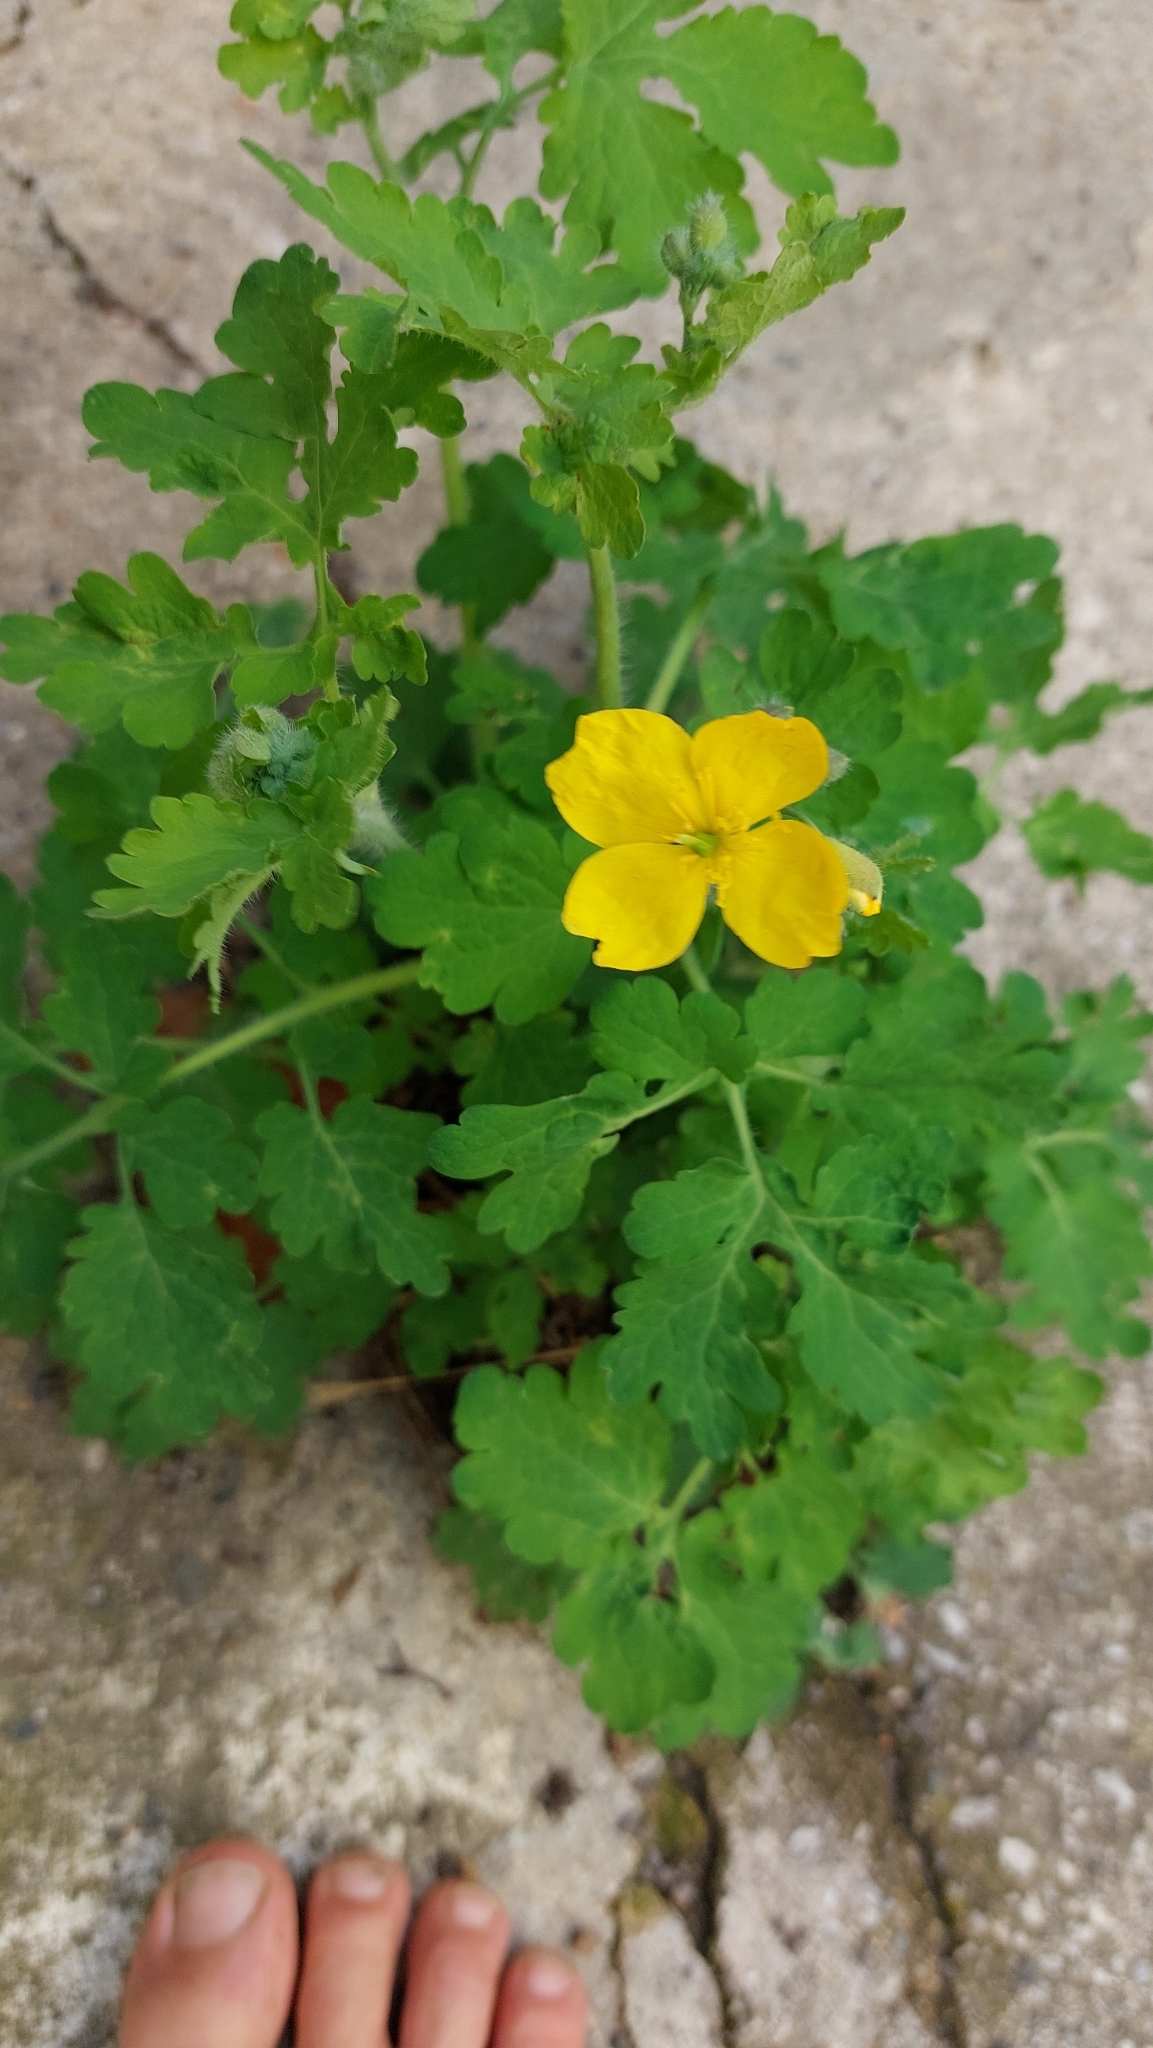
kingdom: Plantae
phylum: Tracheophyta
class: Magnoliopsida
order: Ranunculales
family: Papaveraceae
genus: Chelidonium
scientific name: Chelidonium majus
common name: Greater celandine
